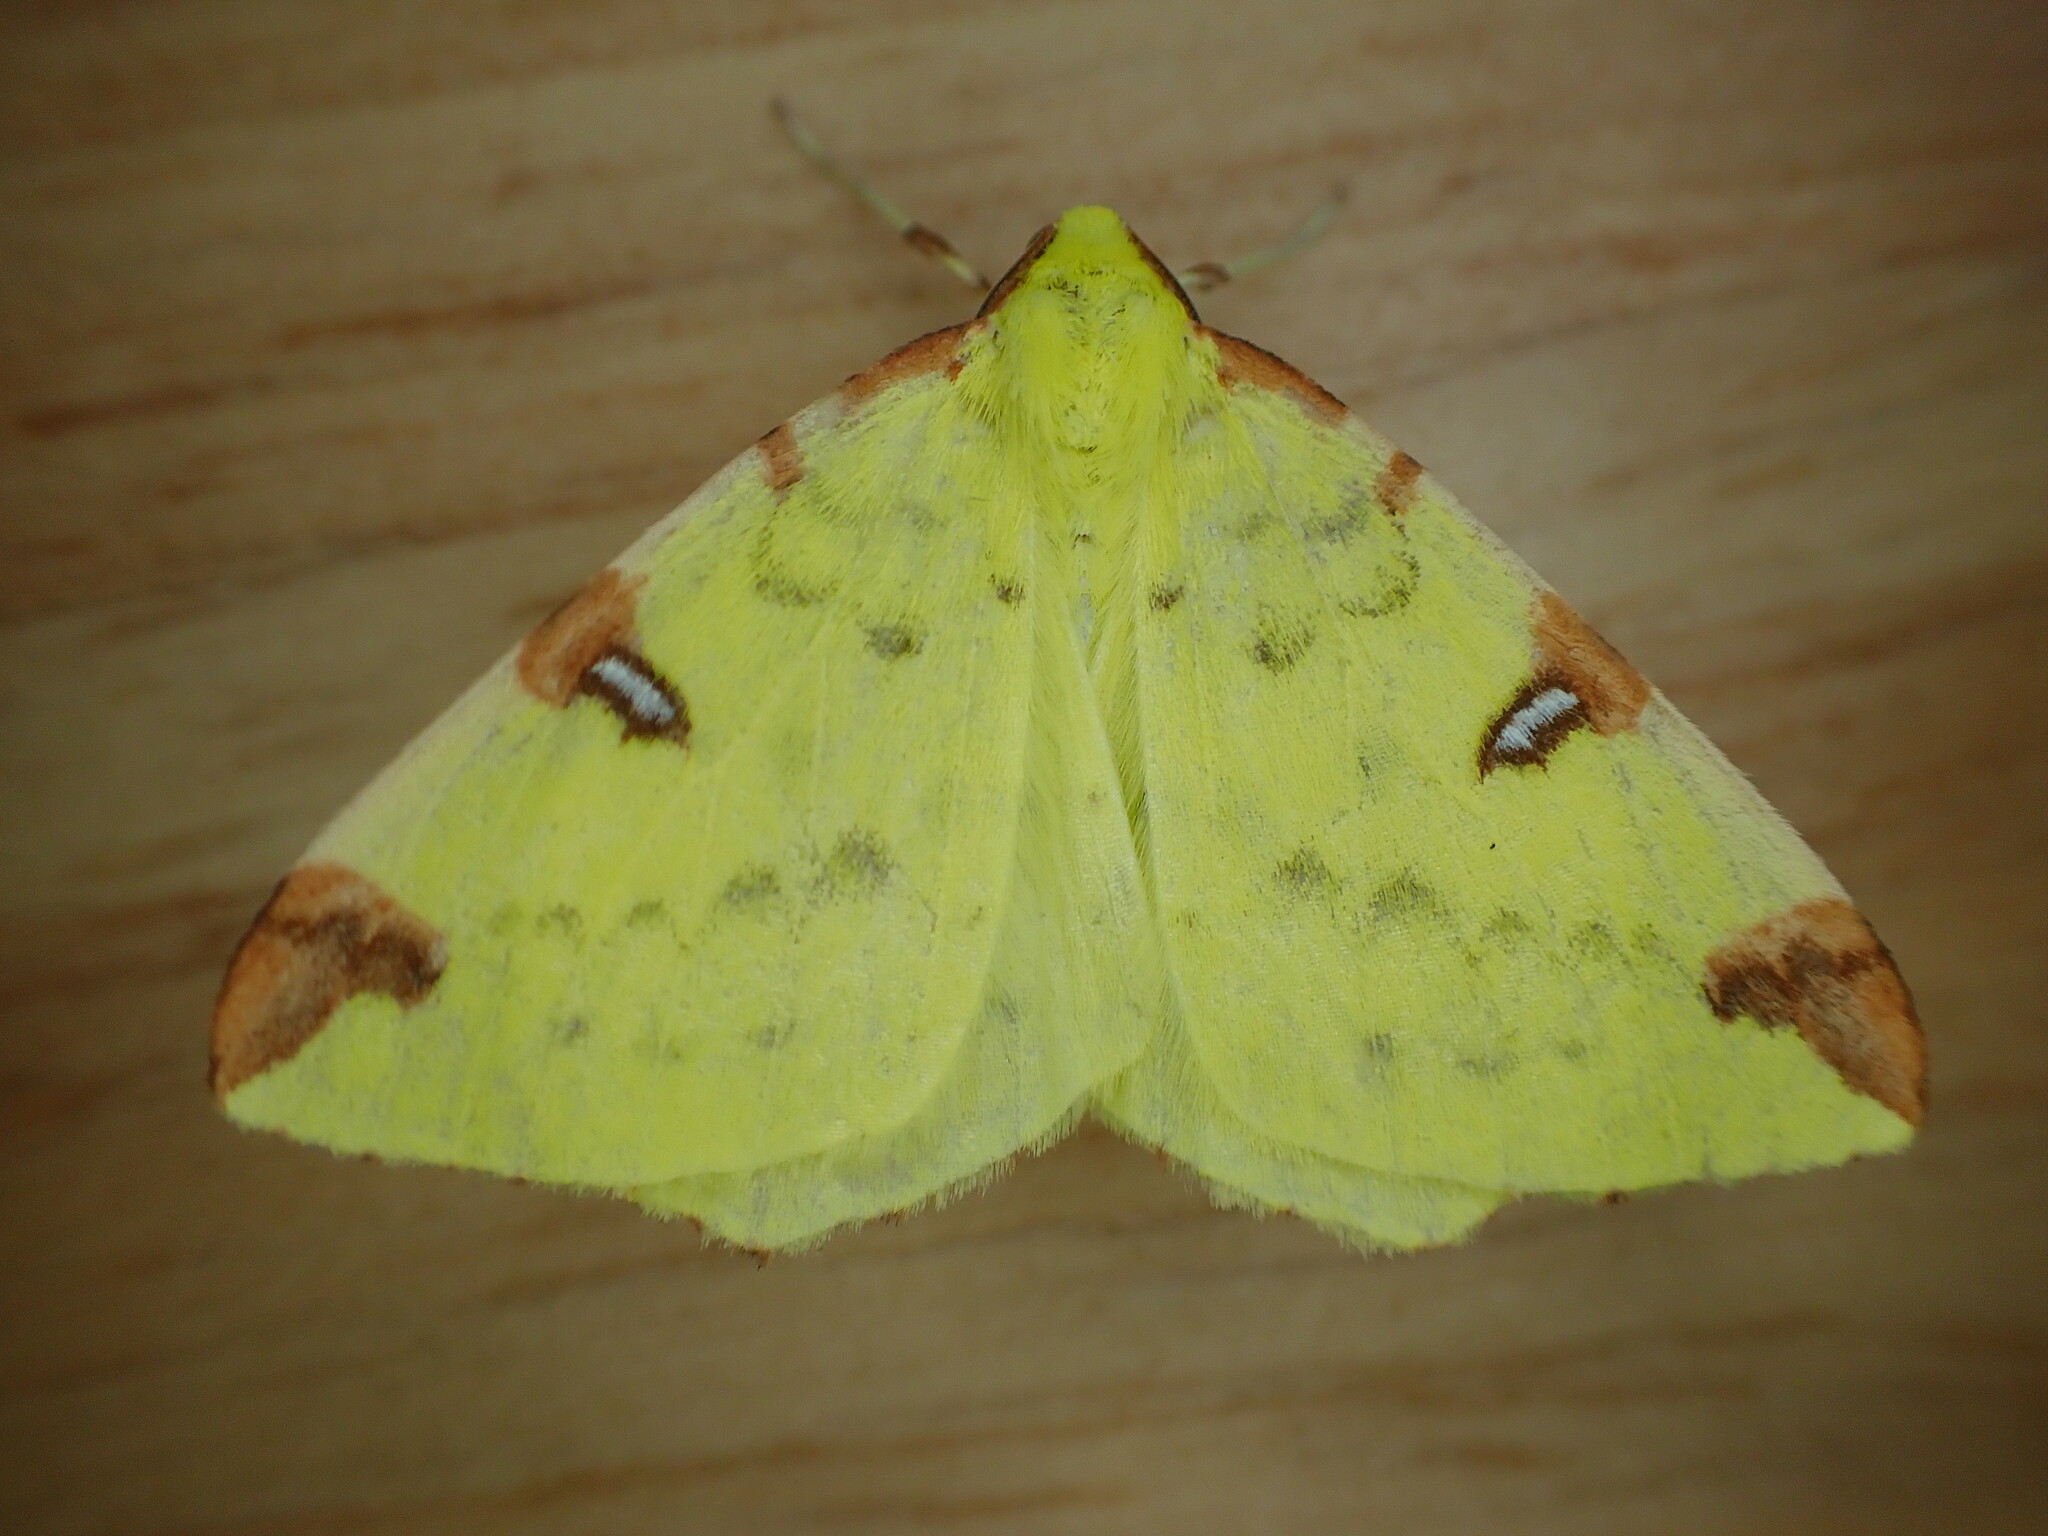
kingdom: Animalia
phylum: Arthropoda
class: Insecta
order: Lepidoptera
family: Geometridae
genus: Opisthograptis
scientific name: Opisthograptis luteolata
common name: Brimstone moth
